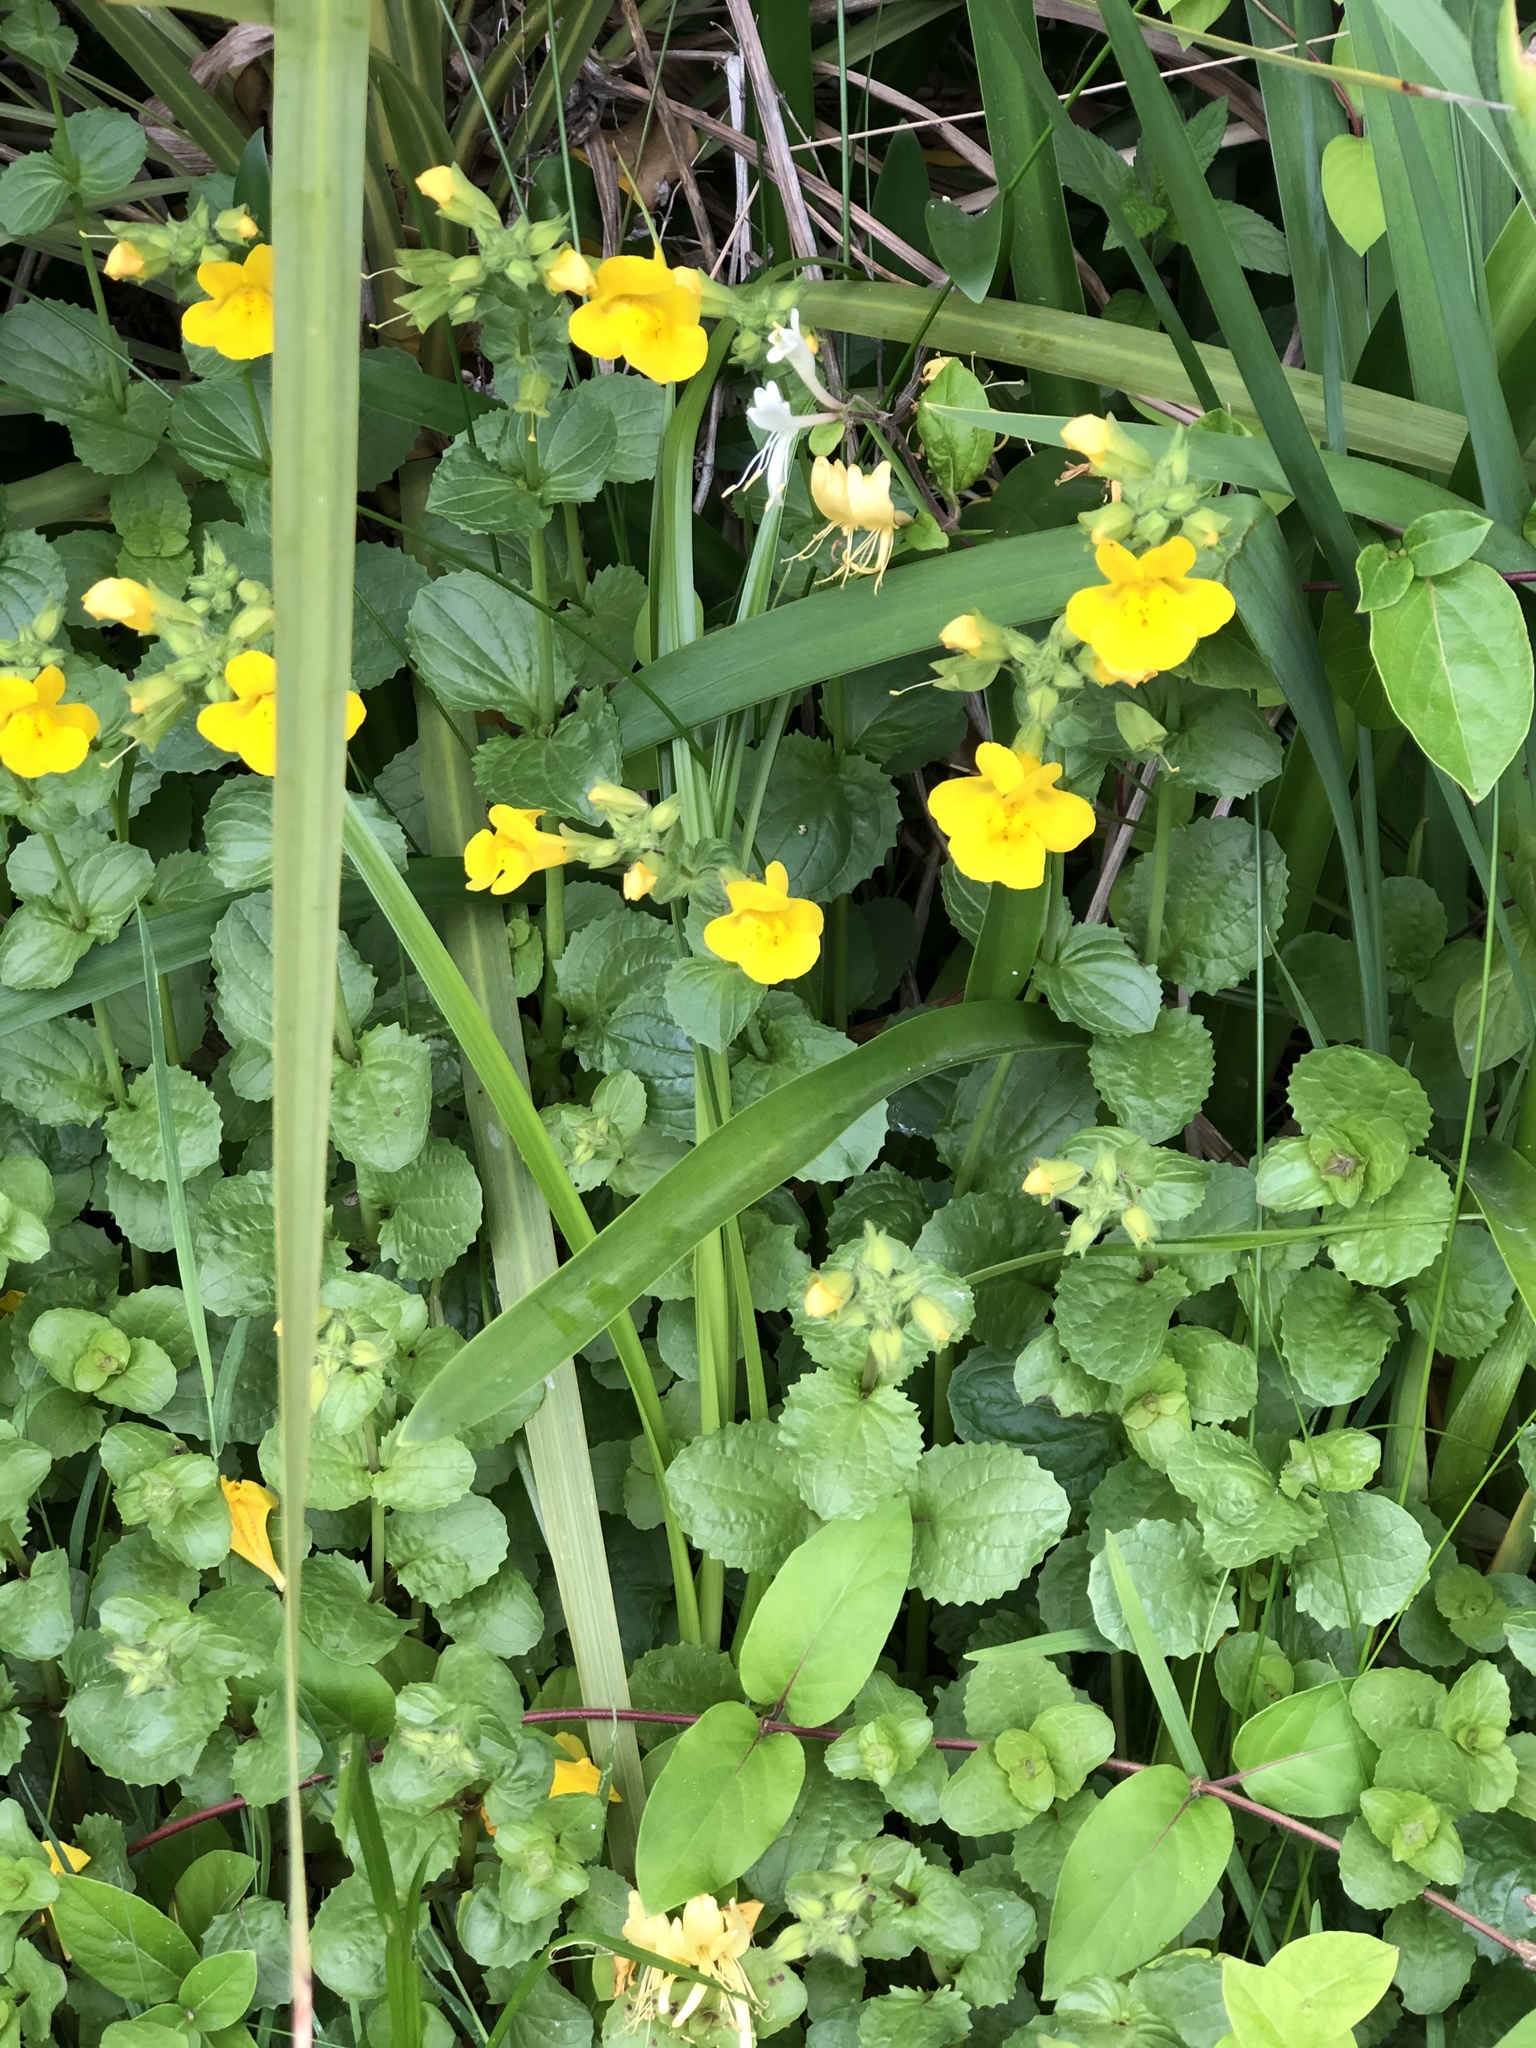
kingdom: Plantae
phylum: Tracheophyta
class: Magnoliopsida
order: Lamiales
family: Phrymaceae
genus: Erythranthe
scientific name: Erythranthe guttata
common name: Monkeyflower
